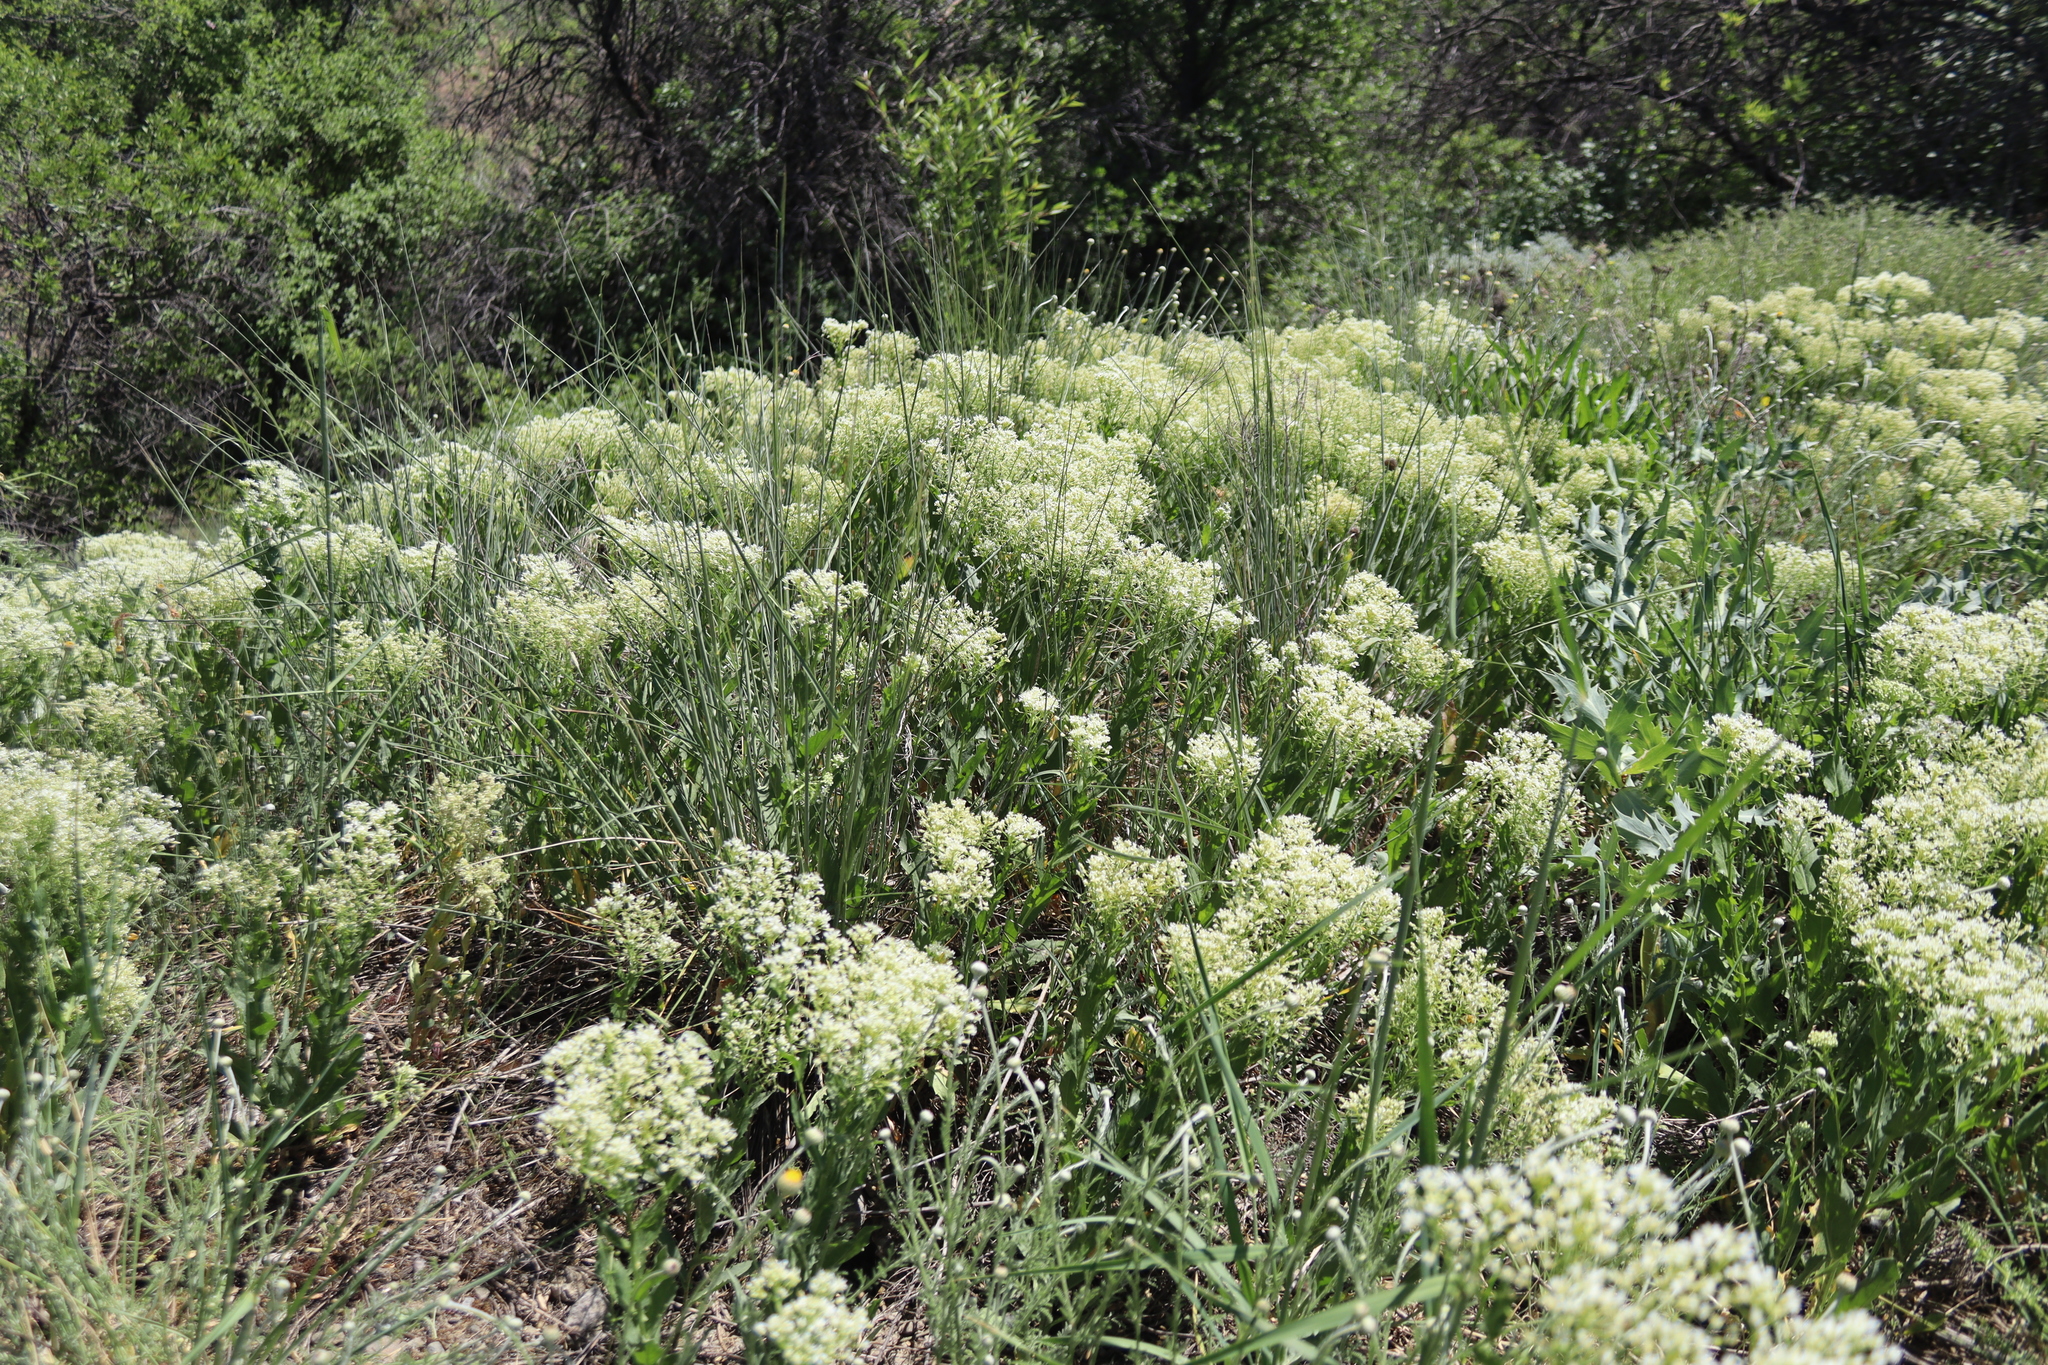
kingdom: Plantae
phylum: Tracheophyta
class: Magnoliopsida
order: Brassicales
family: Brassicaceae
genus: Lepidium
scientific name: Lepidium draba
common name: Hoary cress
